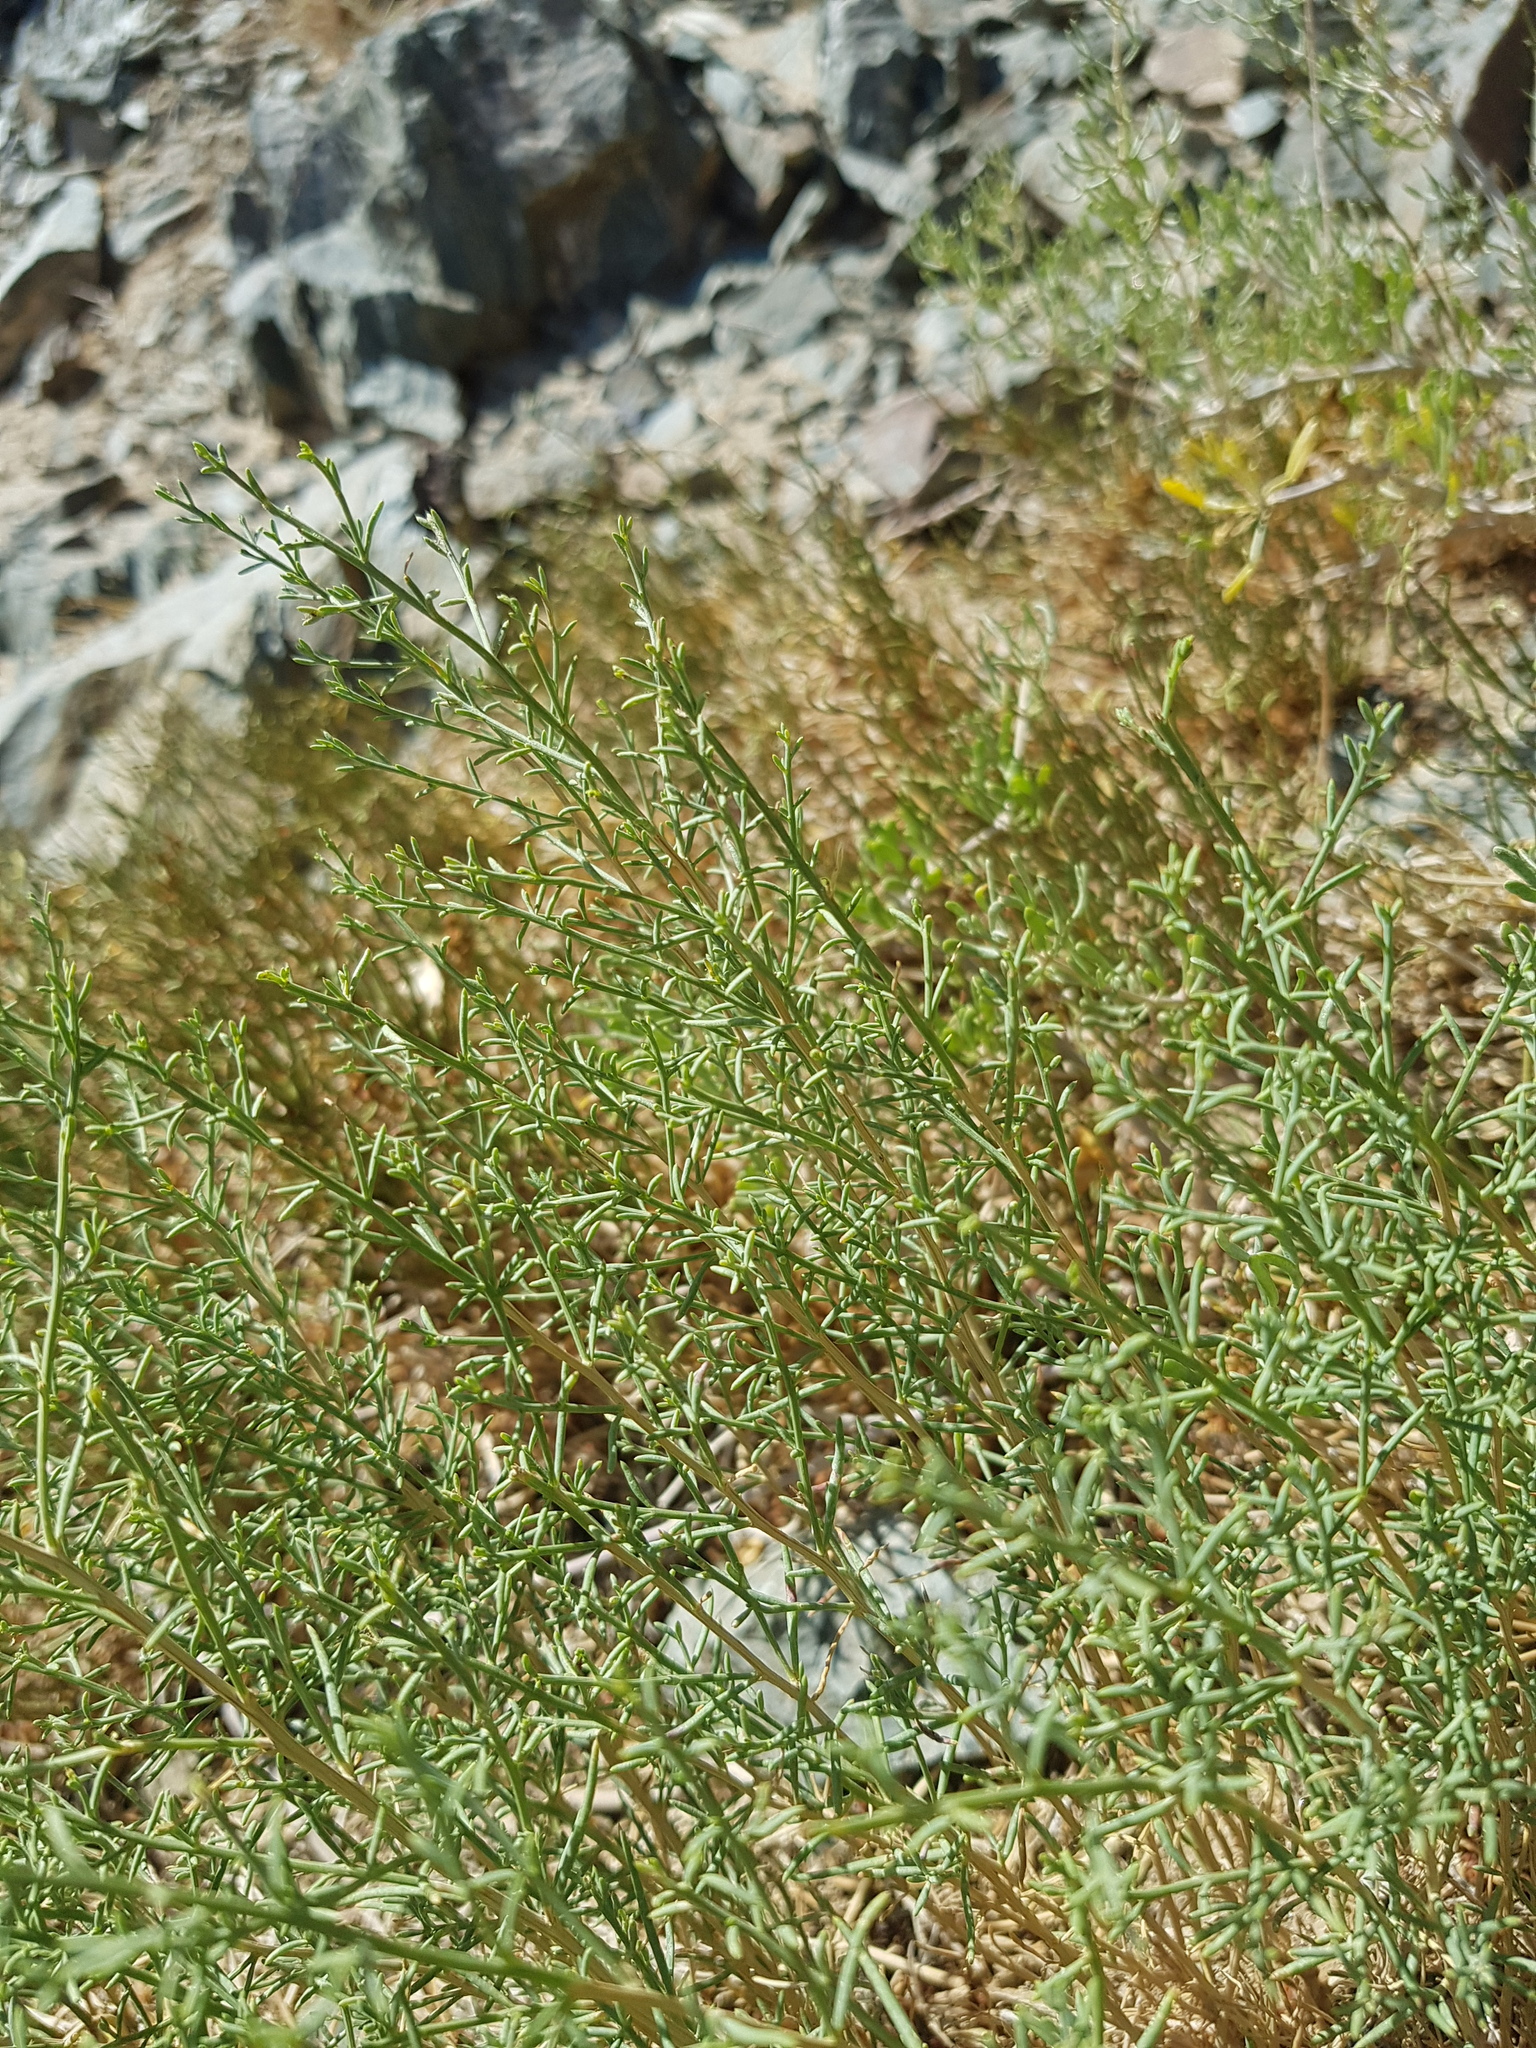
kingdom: Plantae
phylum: Tracheophyta
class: Magnoliopsida
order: Caryophyllales
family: Amaranthaceae
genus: Sympegma
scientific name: Sympegma regelii
